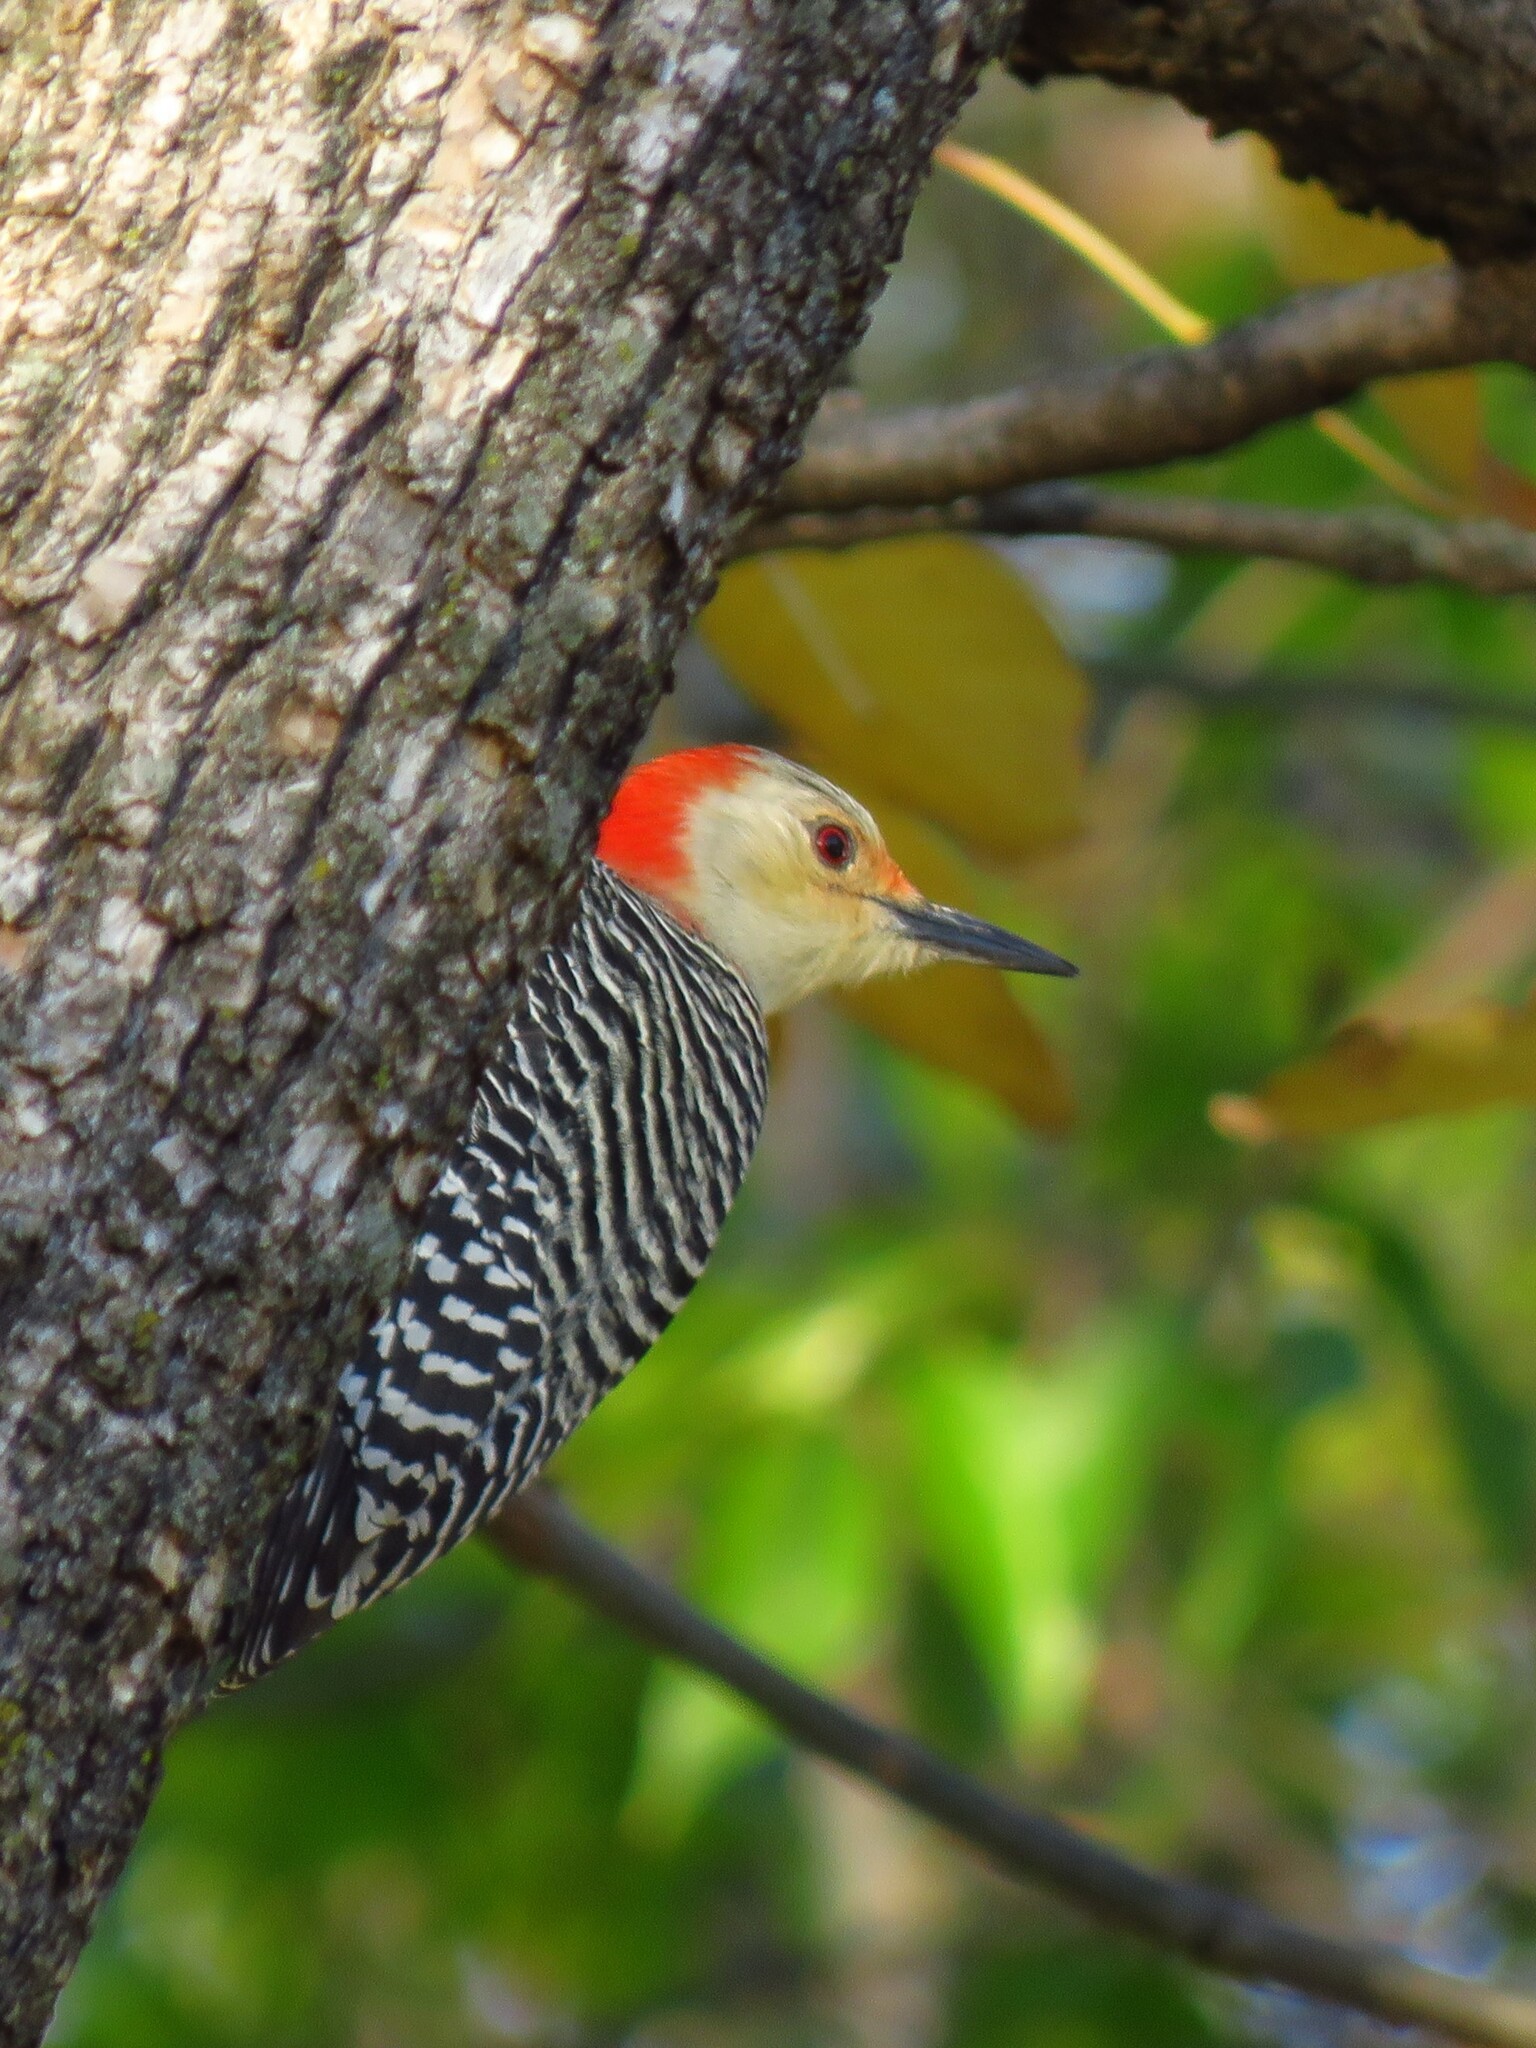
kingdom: Animalia
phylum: Chordata
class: Aves
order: Piciformes
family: Picidae
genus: Melanerpes
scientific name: Melanerpes carolinus
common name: Red-bellied woodpecker
